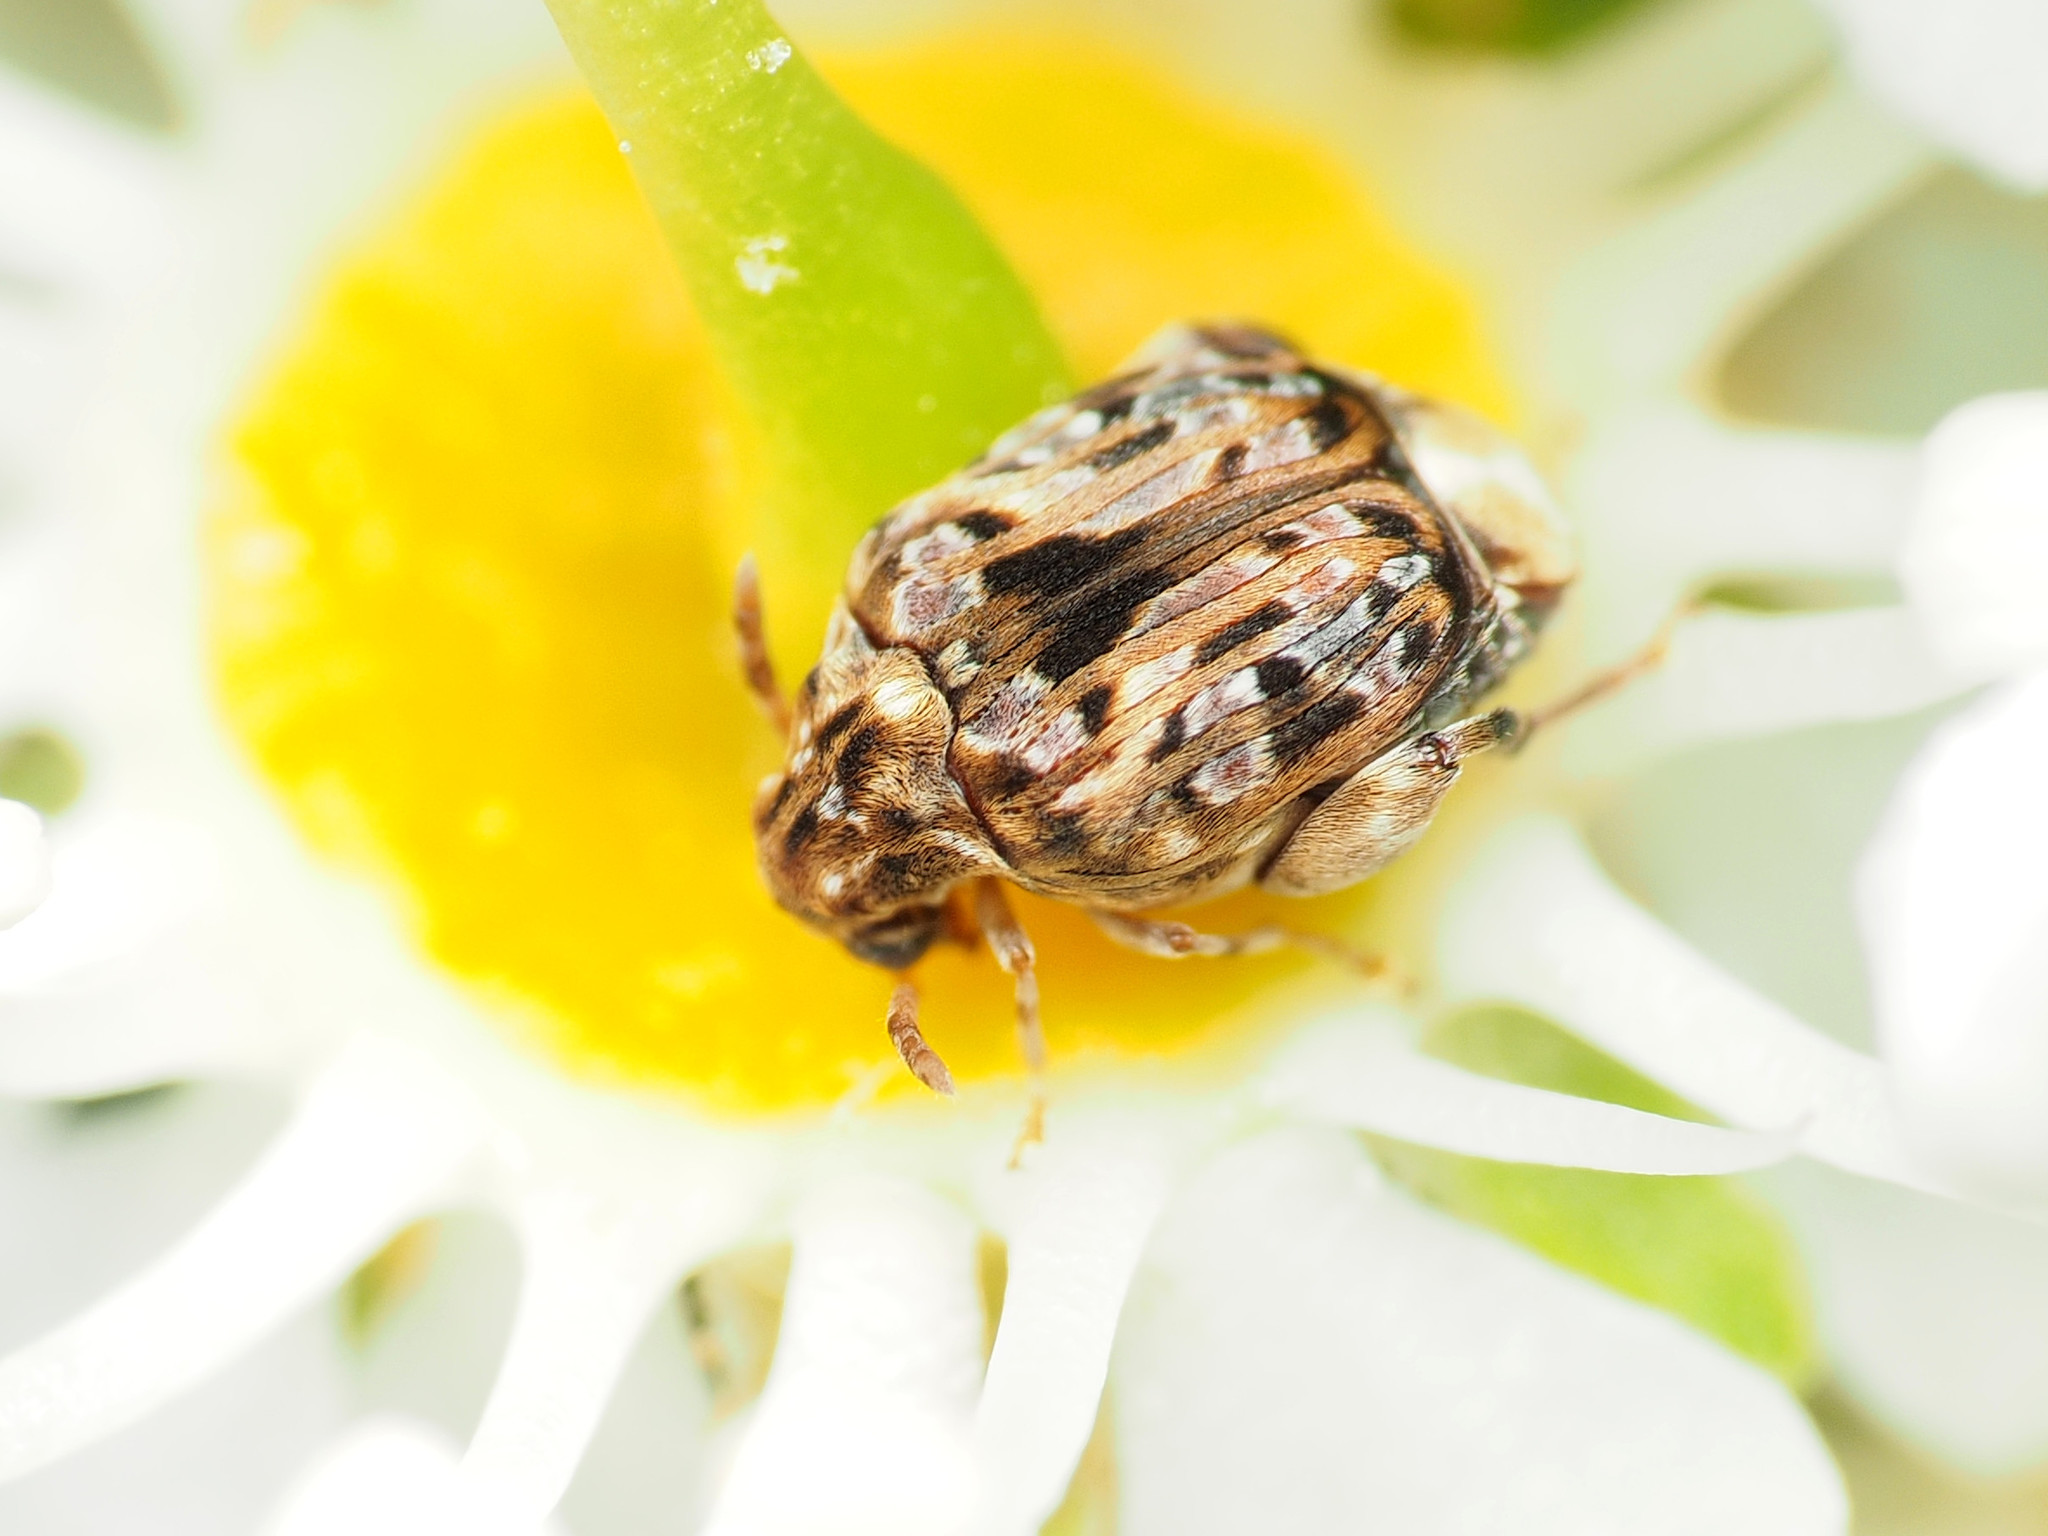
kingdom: Animalia
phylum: Arthropoda
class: Insecta
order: Coleoptera
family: Chrysomelidae
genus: Gibbobruchus
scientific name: Gibbobruchus mimus
